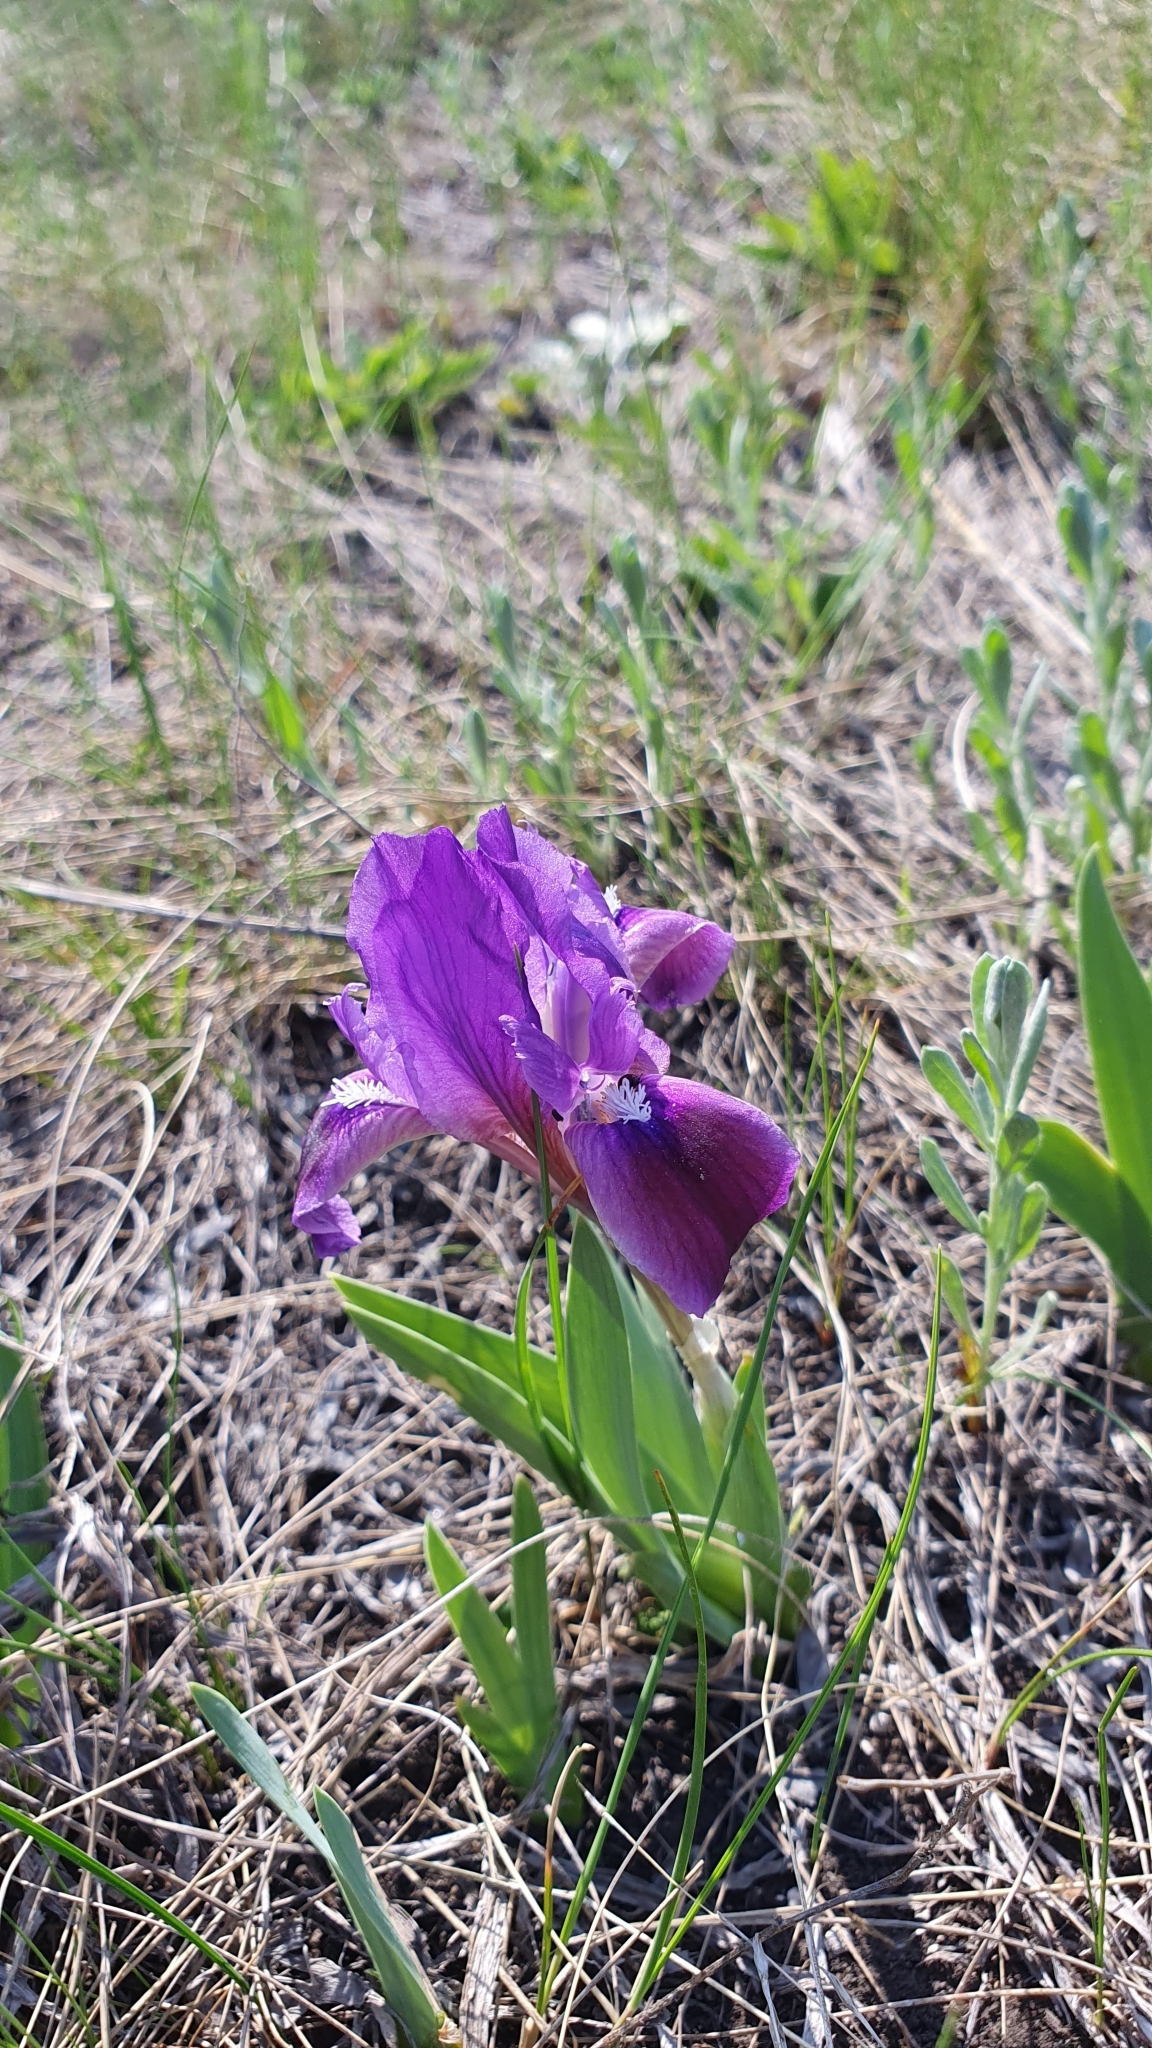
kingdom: Plantae
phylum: Tracheophyta
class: Liliopsida
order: Asparagales
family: Iridaceae
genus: Iris
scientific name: Iris pumila
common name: Dwarf iris
